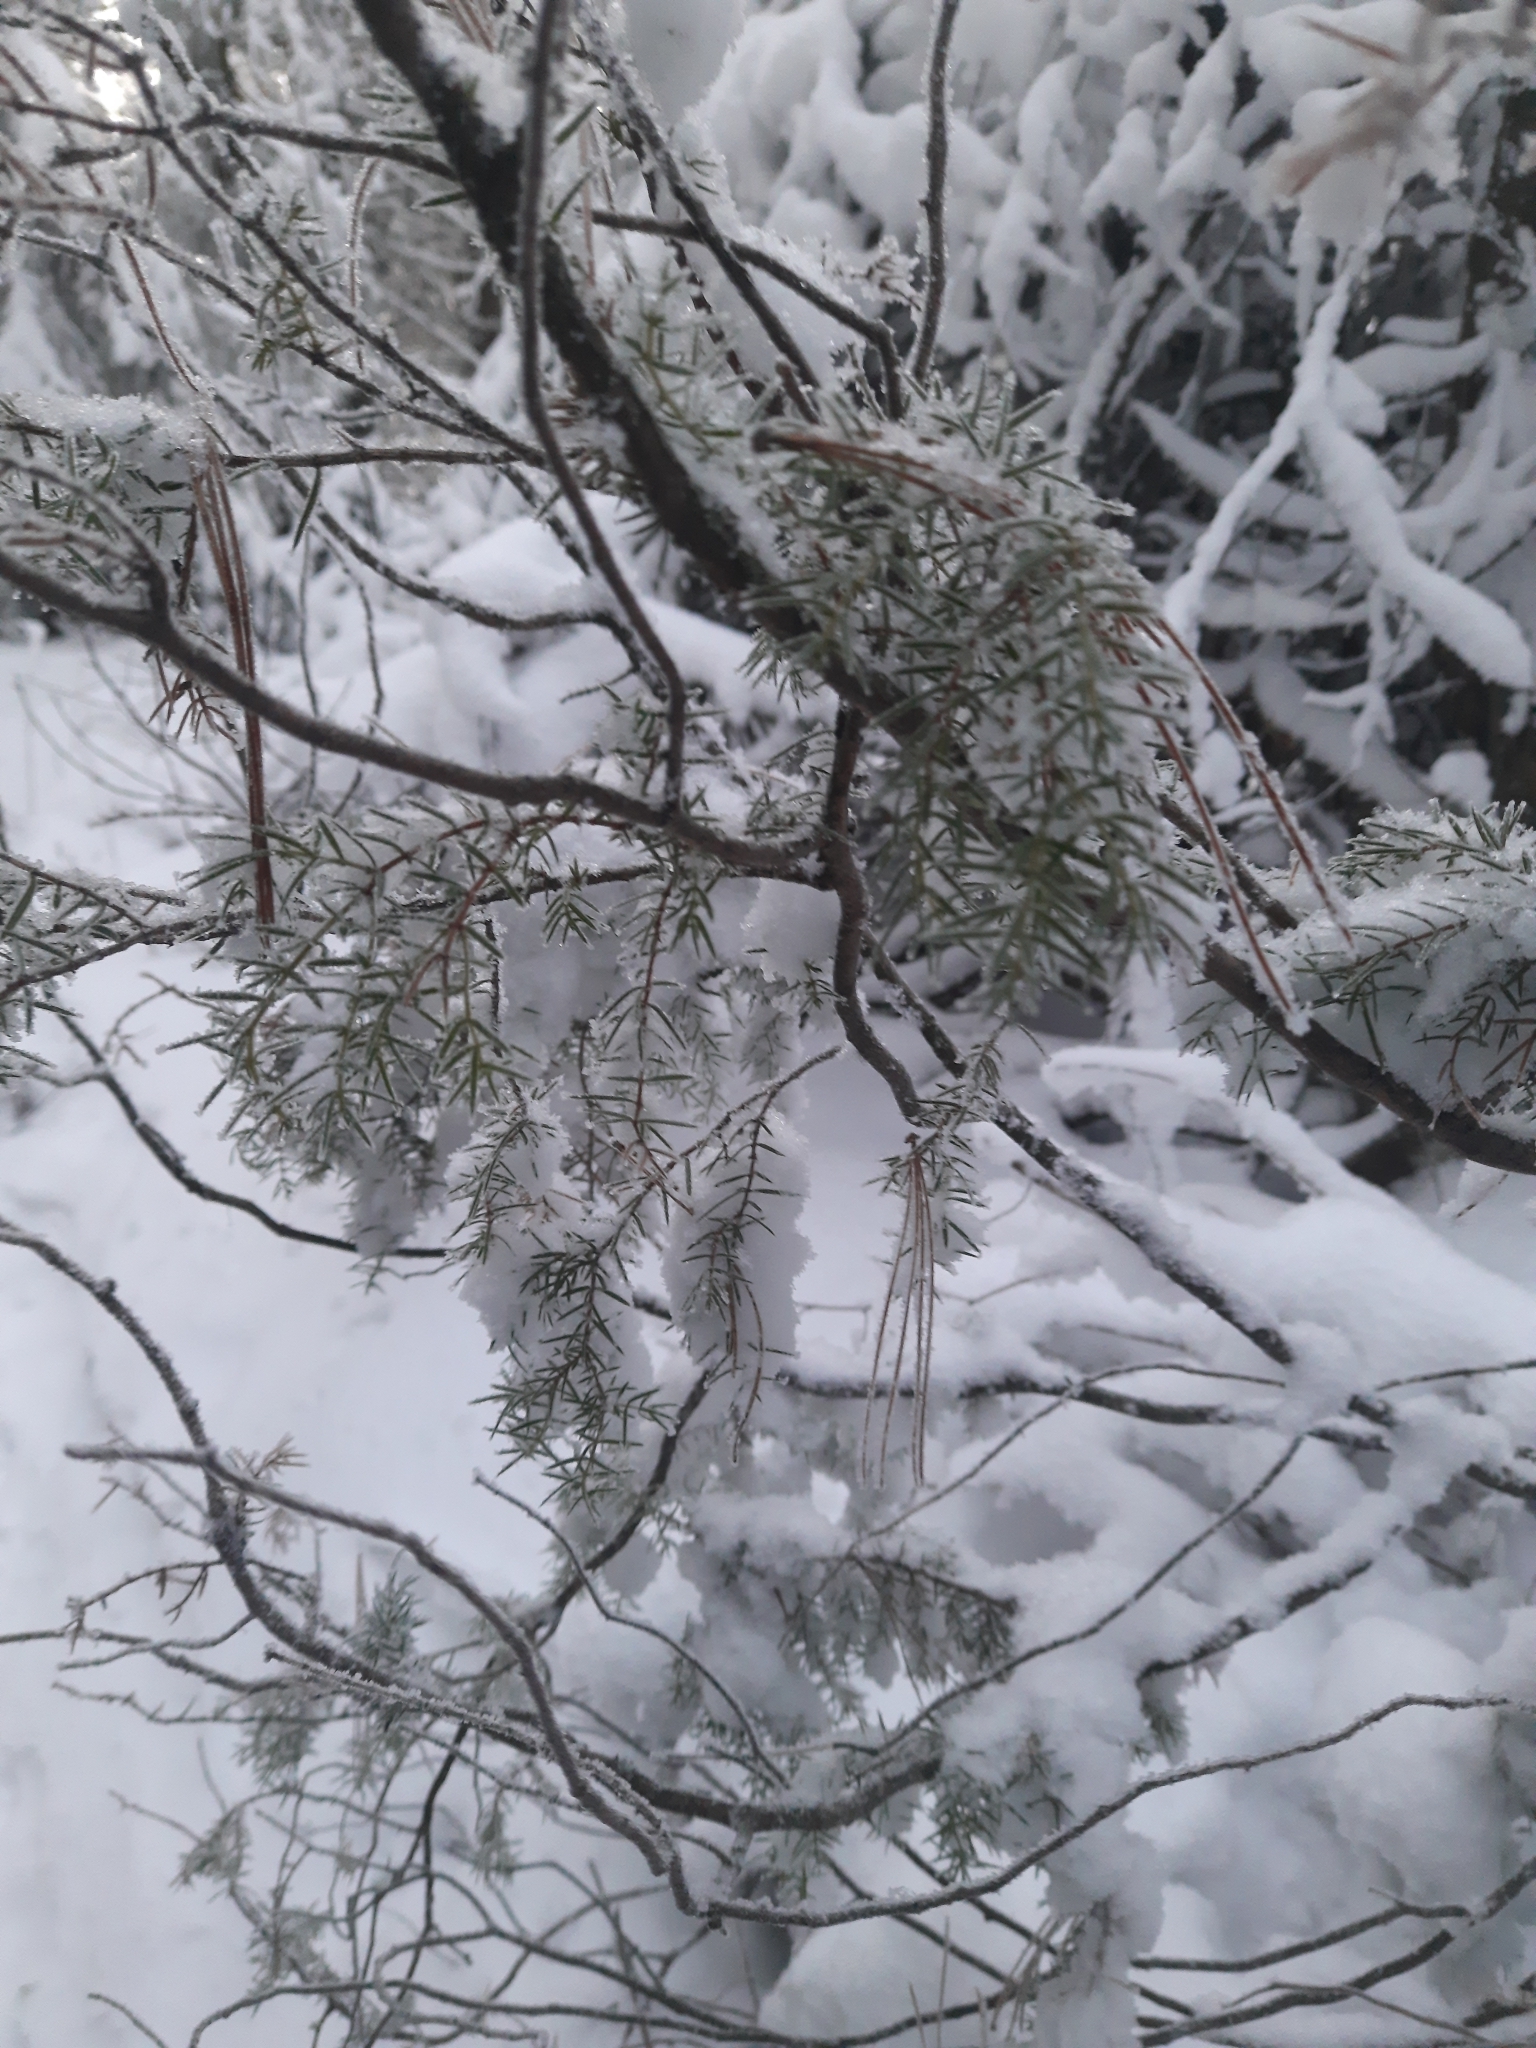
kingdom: Plantae
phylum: Tracheophyta
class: Pinopsida
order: Pinales
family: Cupressaceae
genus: Juniperus
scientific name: Juniperus communis
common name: Common juniper
